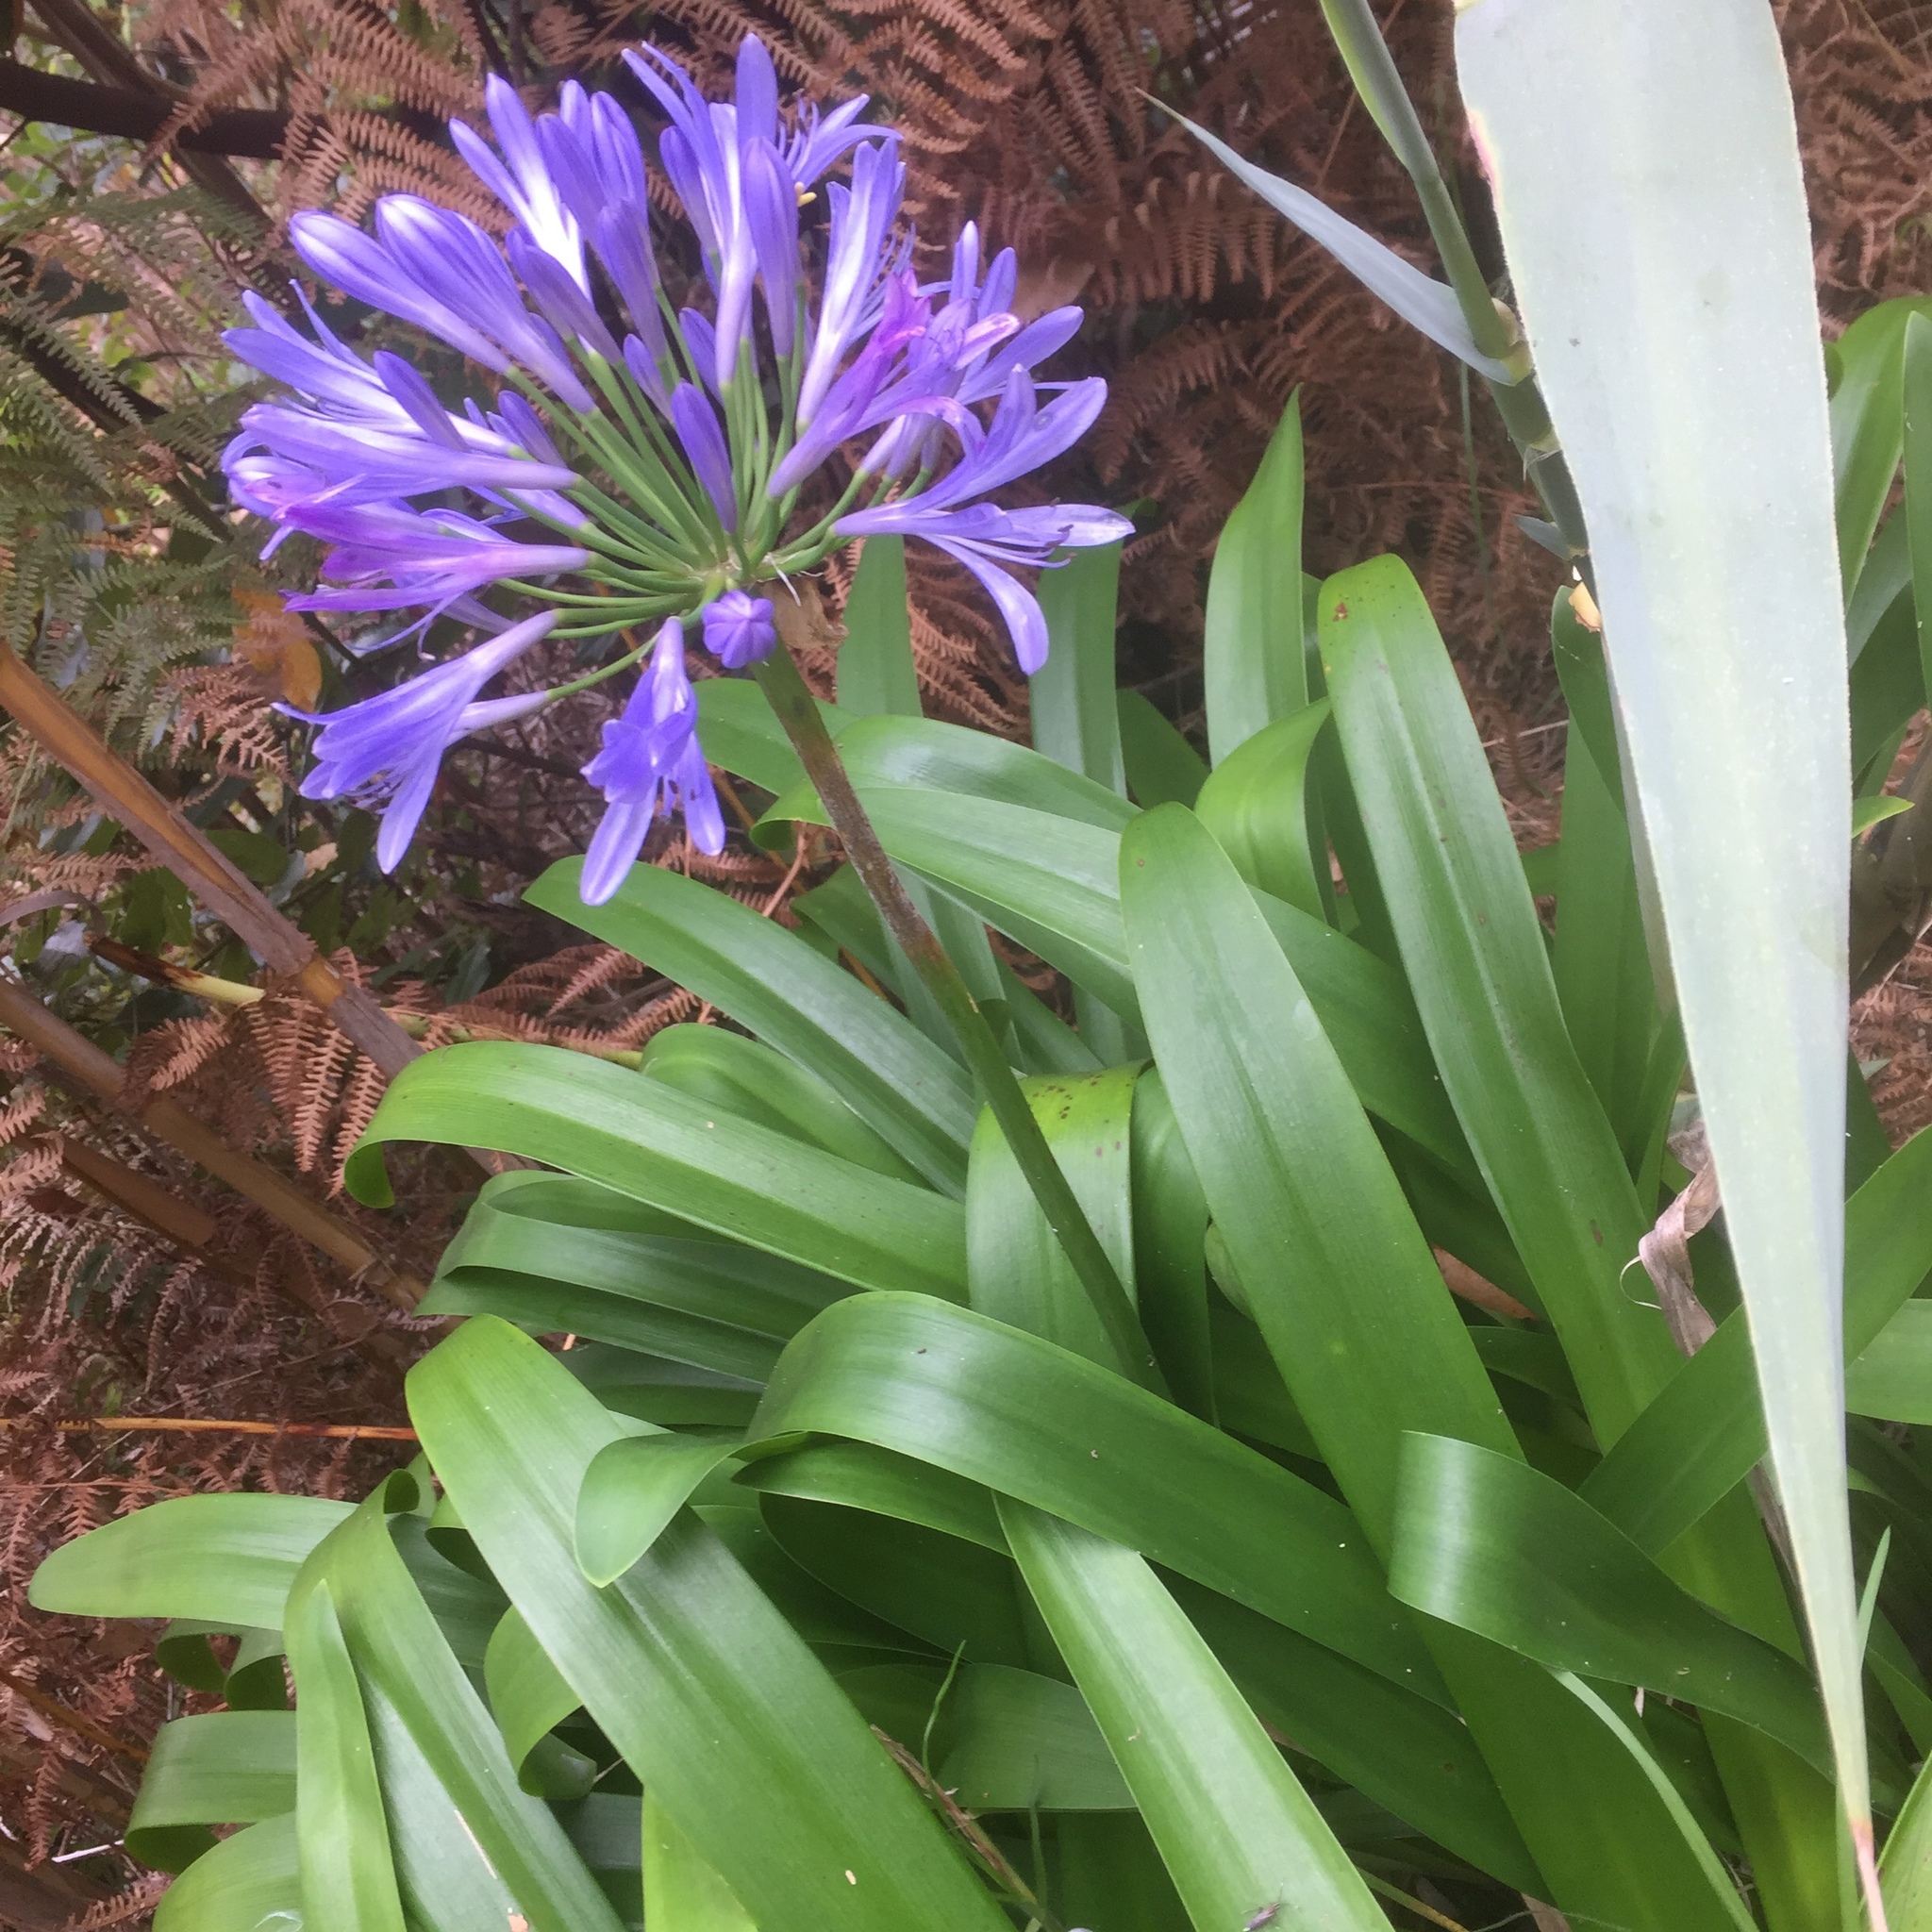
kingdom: Plantae
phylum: Tracheophyta
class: Liliopsida
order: Asparagales
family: Amaryllidaceae
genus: Agapanthus
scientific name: Agapanthus praecox
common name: African-lily
